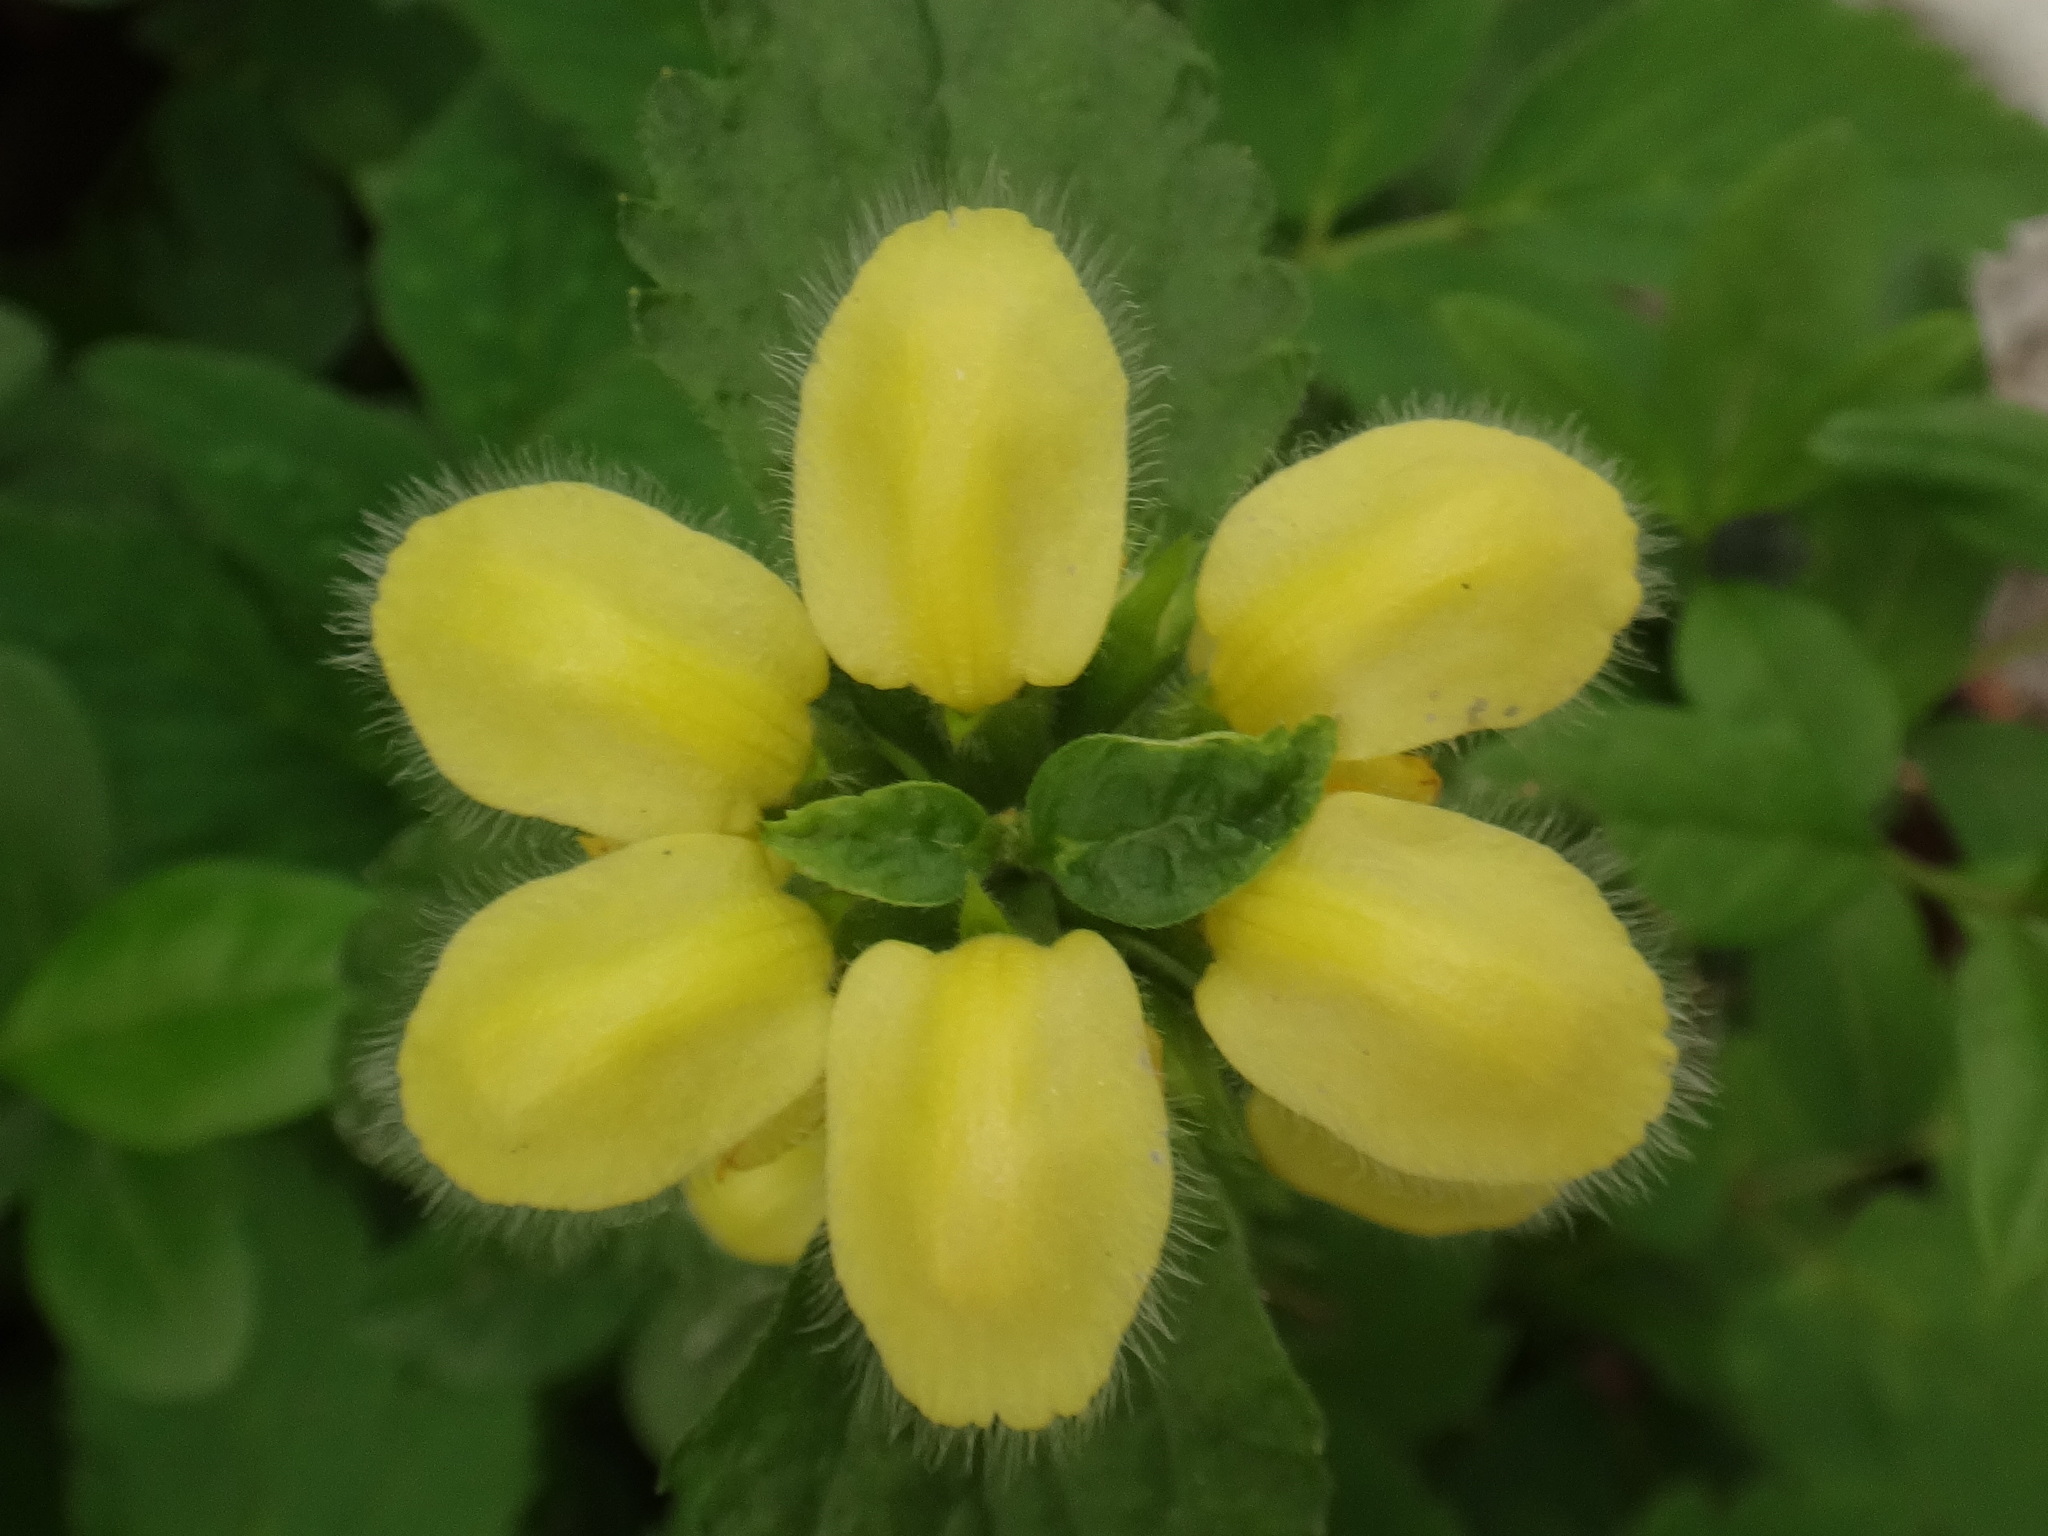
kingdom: Plantae
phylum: Tracheophyta
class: Magnoliopsida
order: Lamiales
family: Lamiaceae
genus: Lamium
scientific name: Lamium galeobdolon
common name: Yellow archangel
